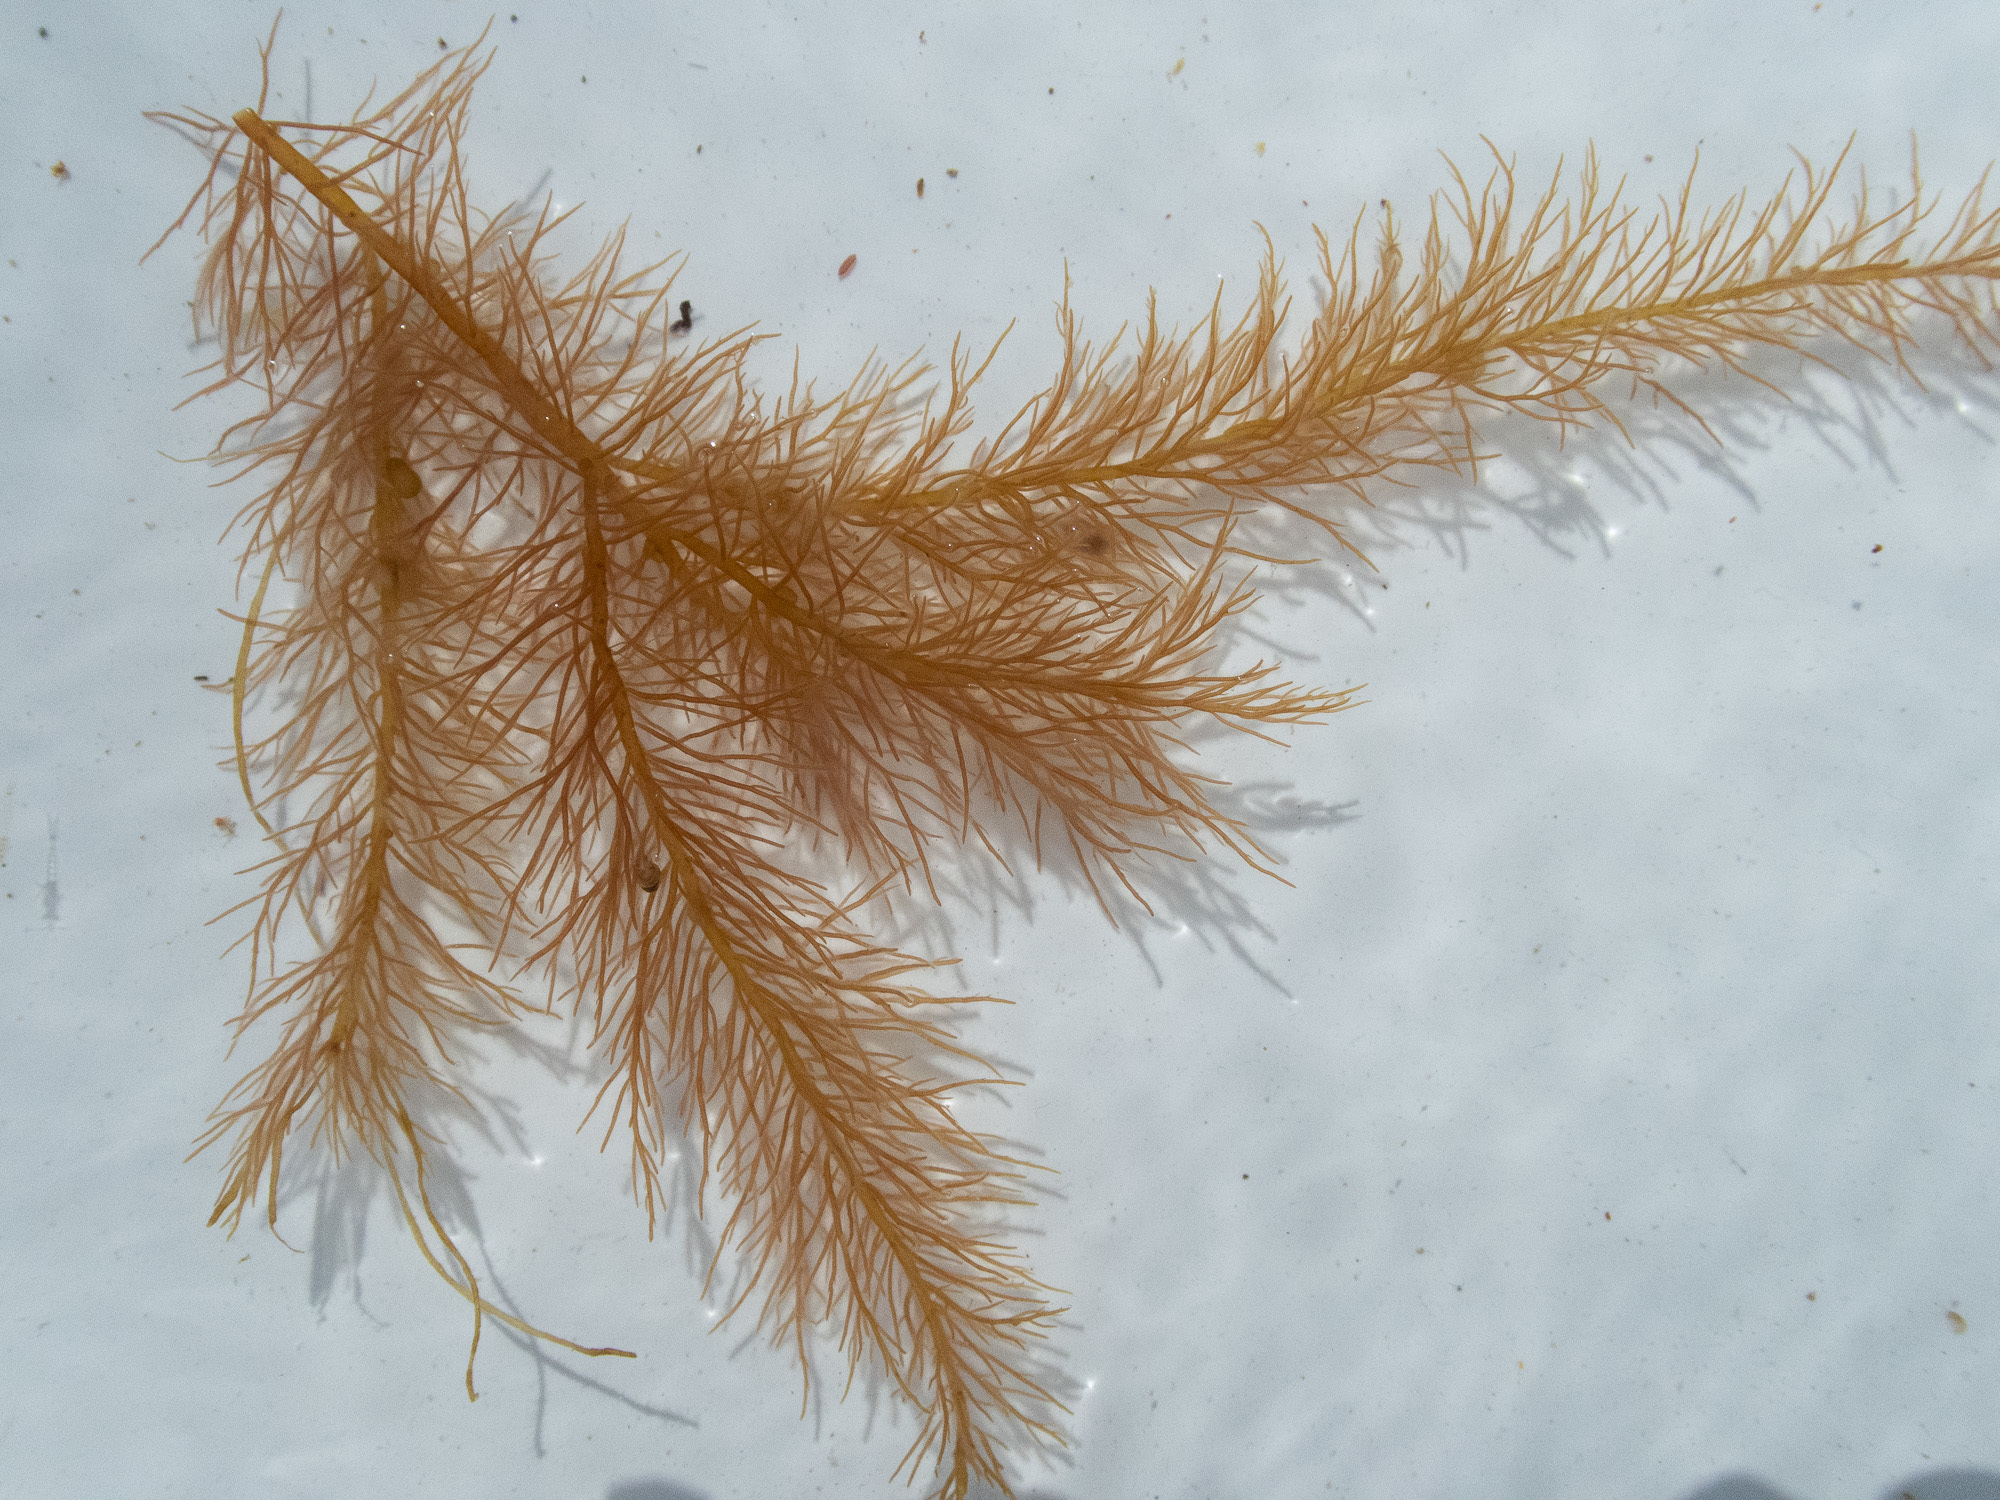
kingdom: Plantae
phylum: Rhodophyta
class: Florideophyceae
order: Gigartinales
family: Cystocloniaceae
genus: Cystoclonium
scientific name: Cystoclonium purpureum
